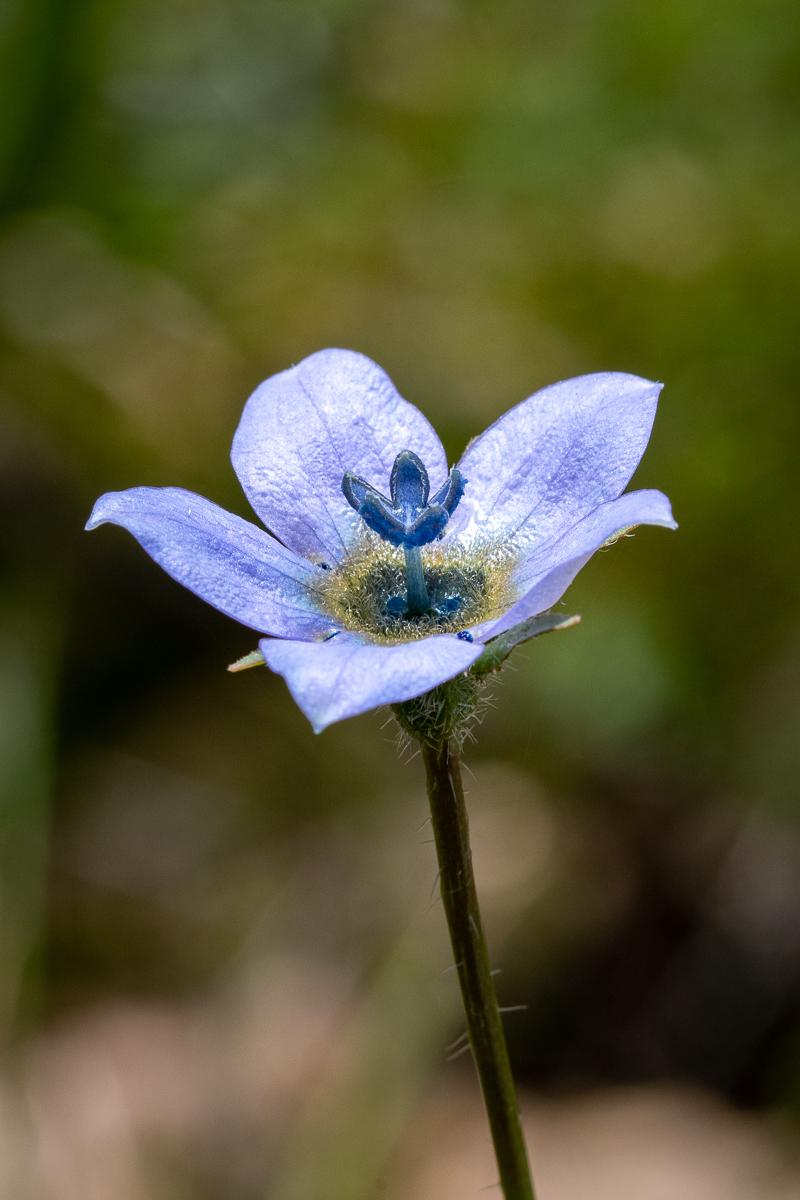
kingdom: Plantae
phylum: Tracheophyta
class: Magnoliopsida
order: Asterales
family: Campanulaceae
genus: Wahlenbergia
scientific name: Wahlenbergia capensis
